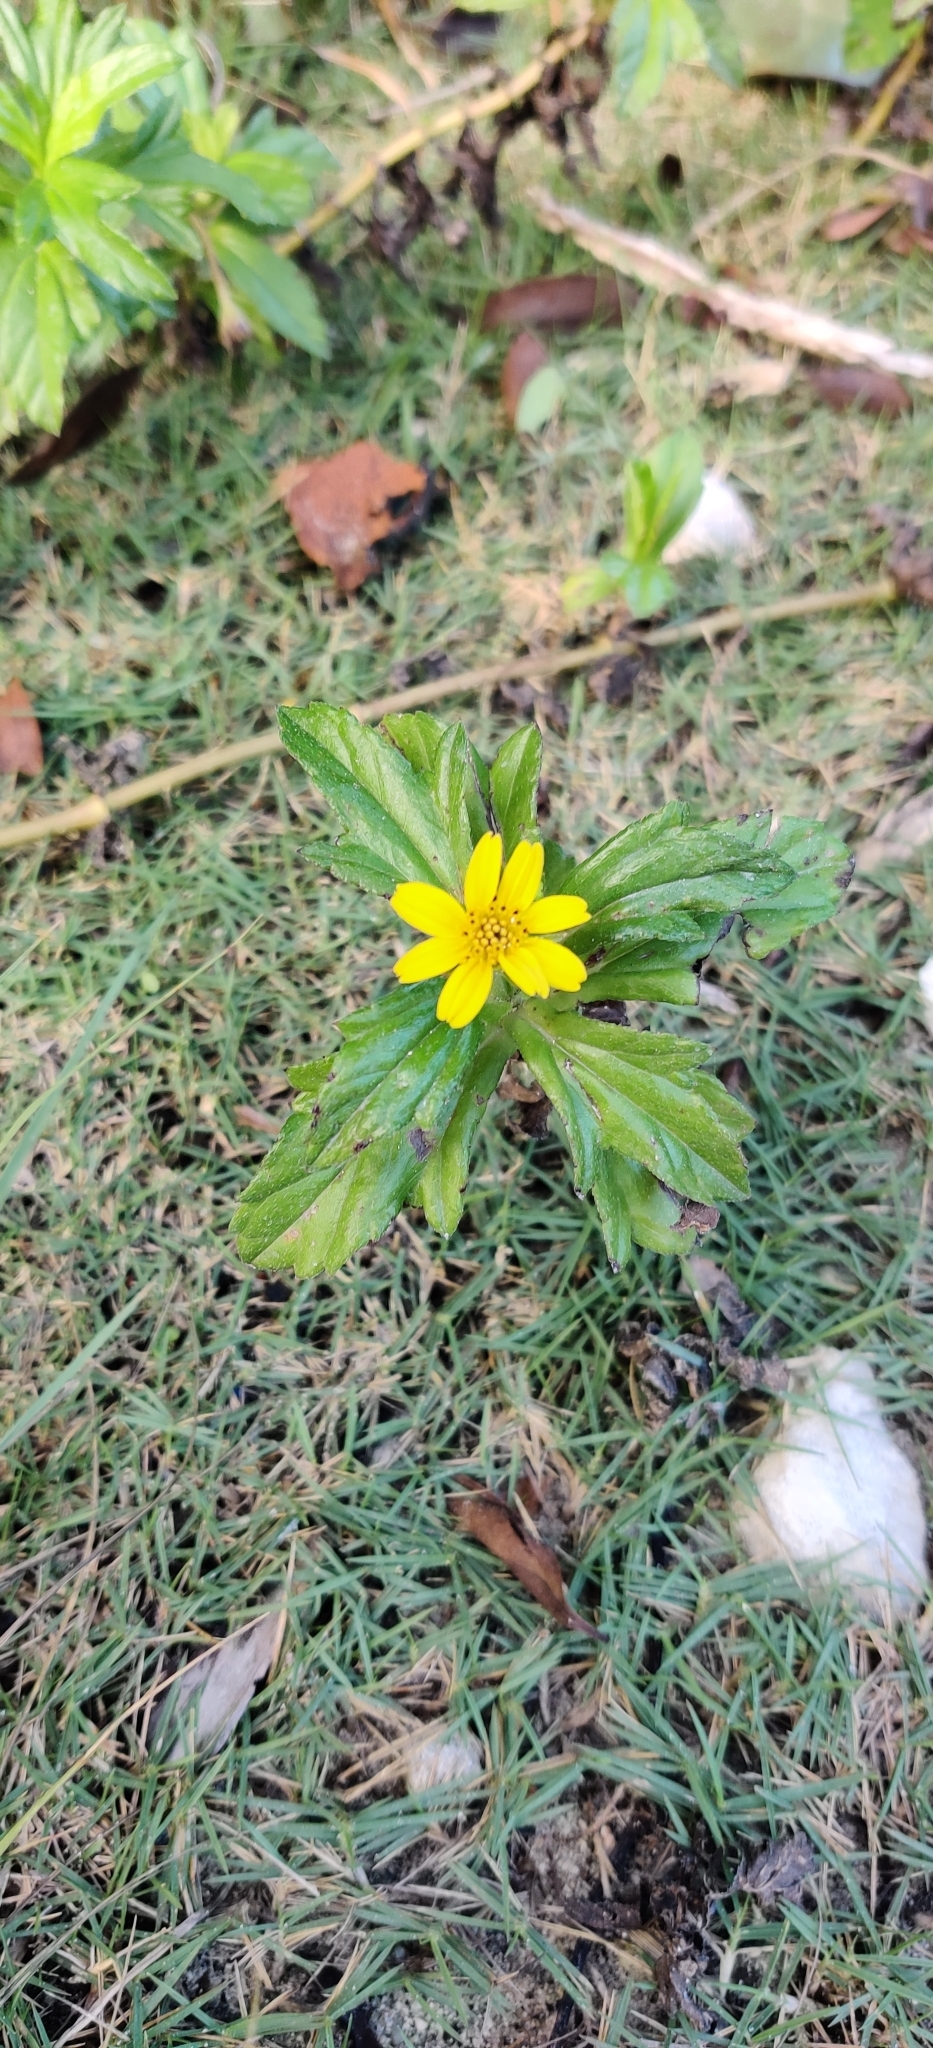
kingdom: Plantae
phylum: Tracheophyta
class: Magnoliopsida
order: Asterales
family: Asteraceae
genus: Sphagneticola
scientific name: Sphagneticola trilobata
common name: Bay biscayne creeping-oxeye
